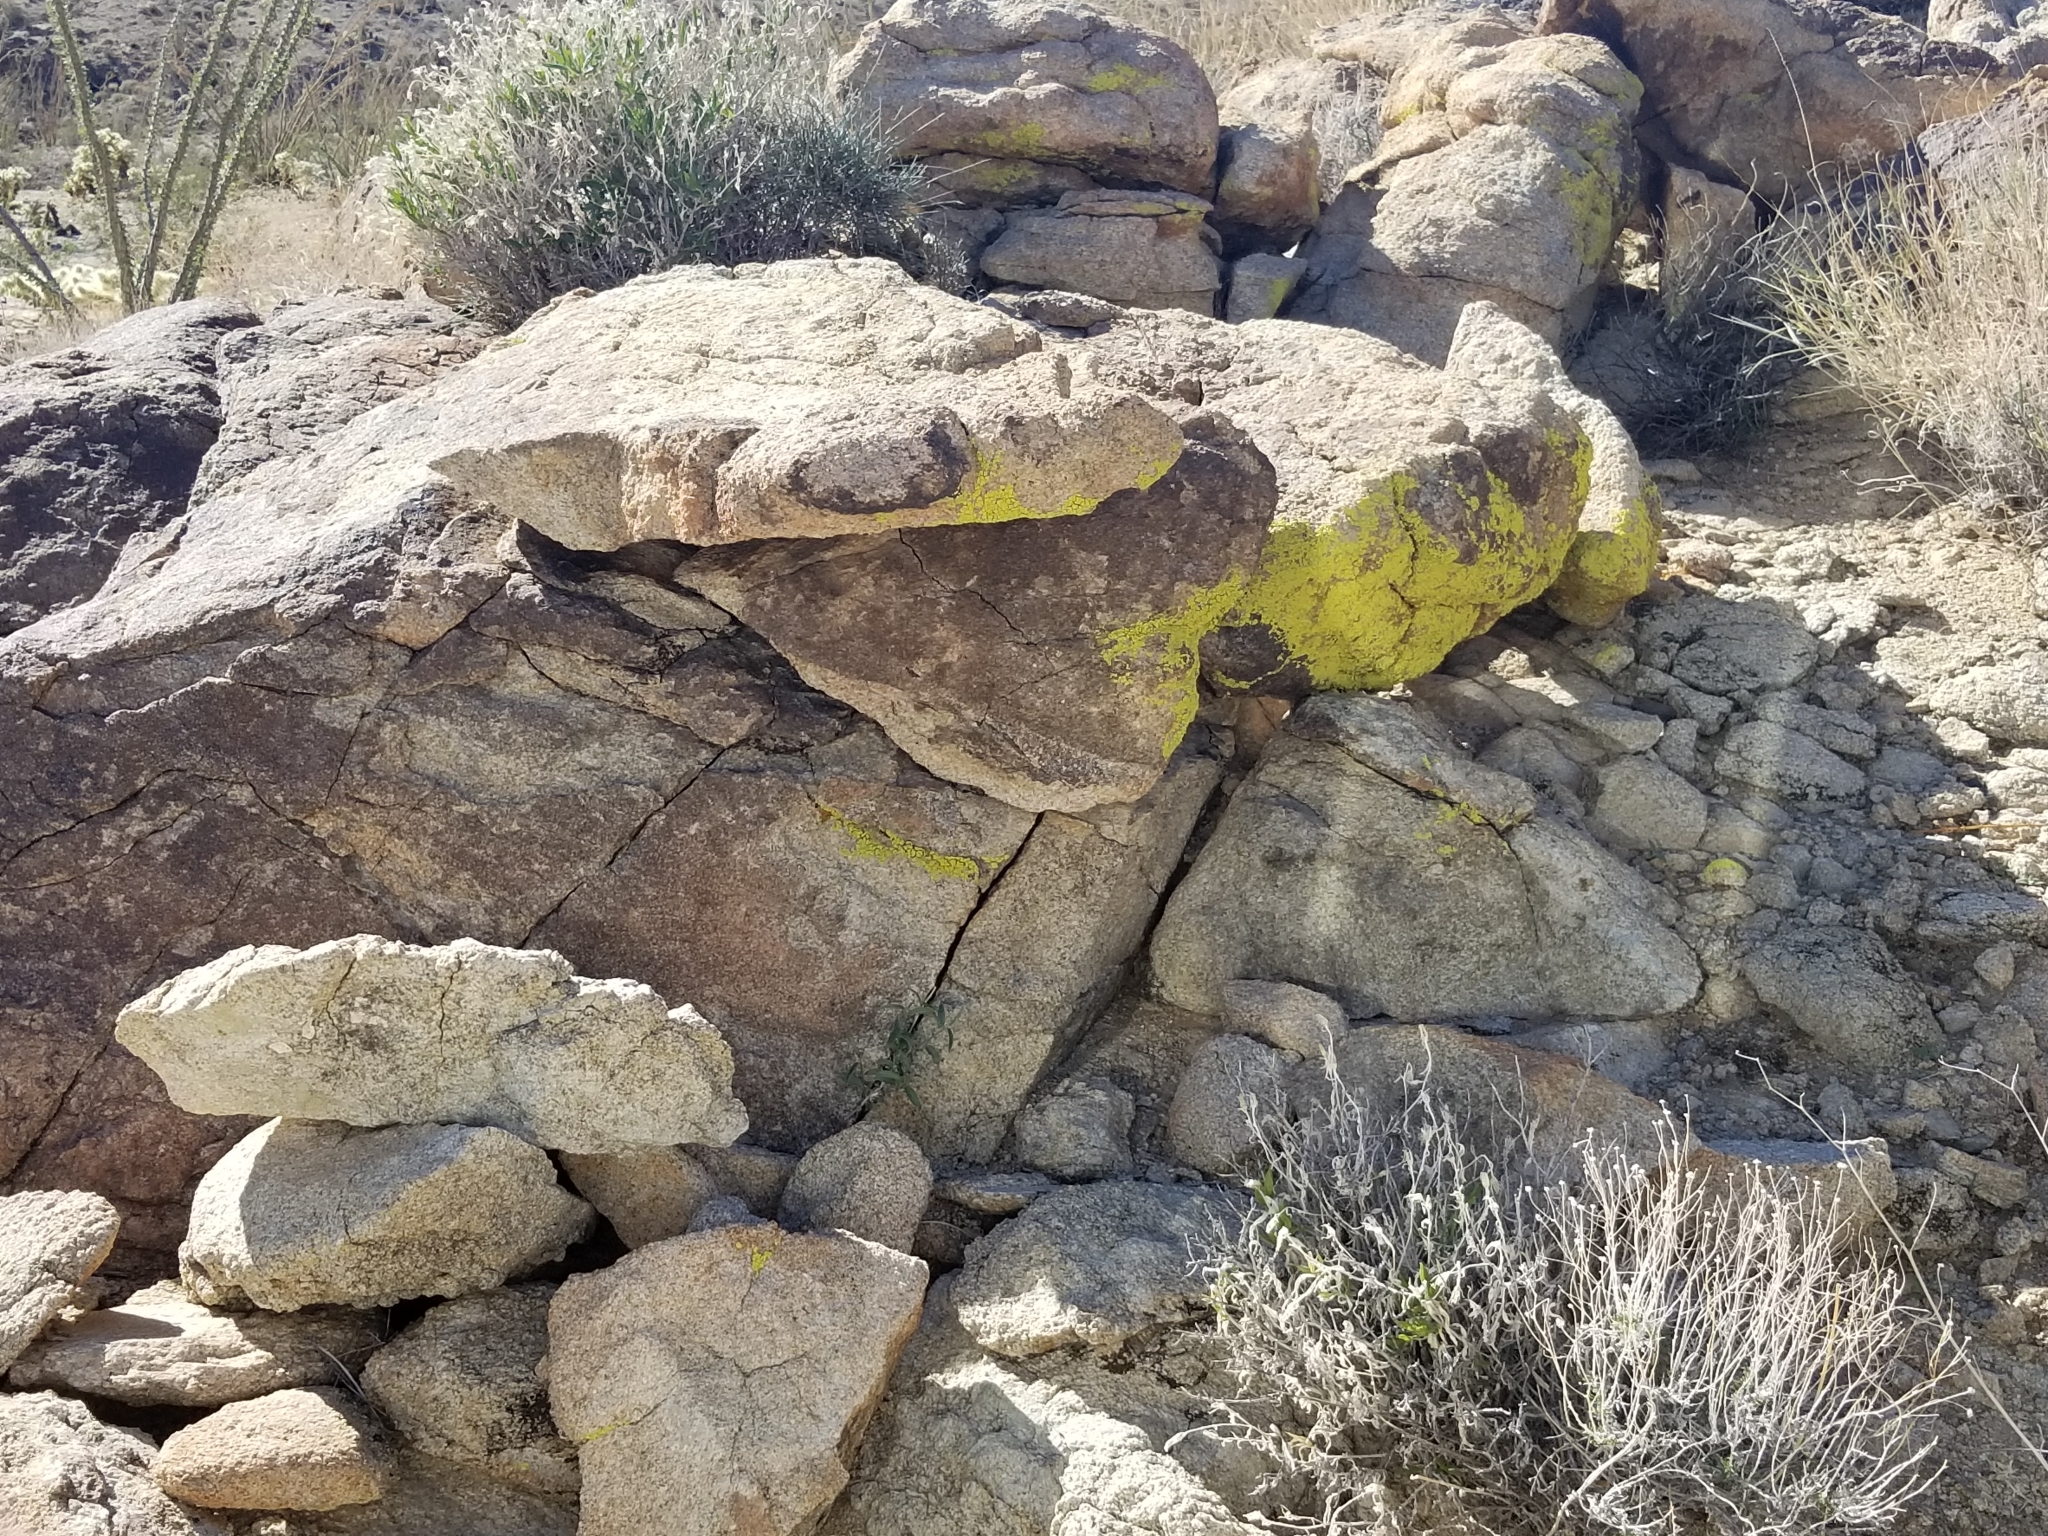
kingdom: Fungi
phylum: Ascomycota
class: Lecanoromycetes
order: Acarosporales
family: Acarosporaceae
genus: Acarospora
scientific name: Acarospora socialis
